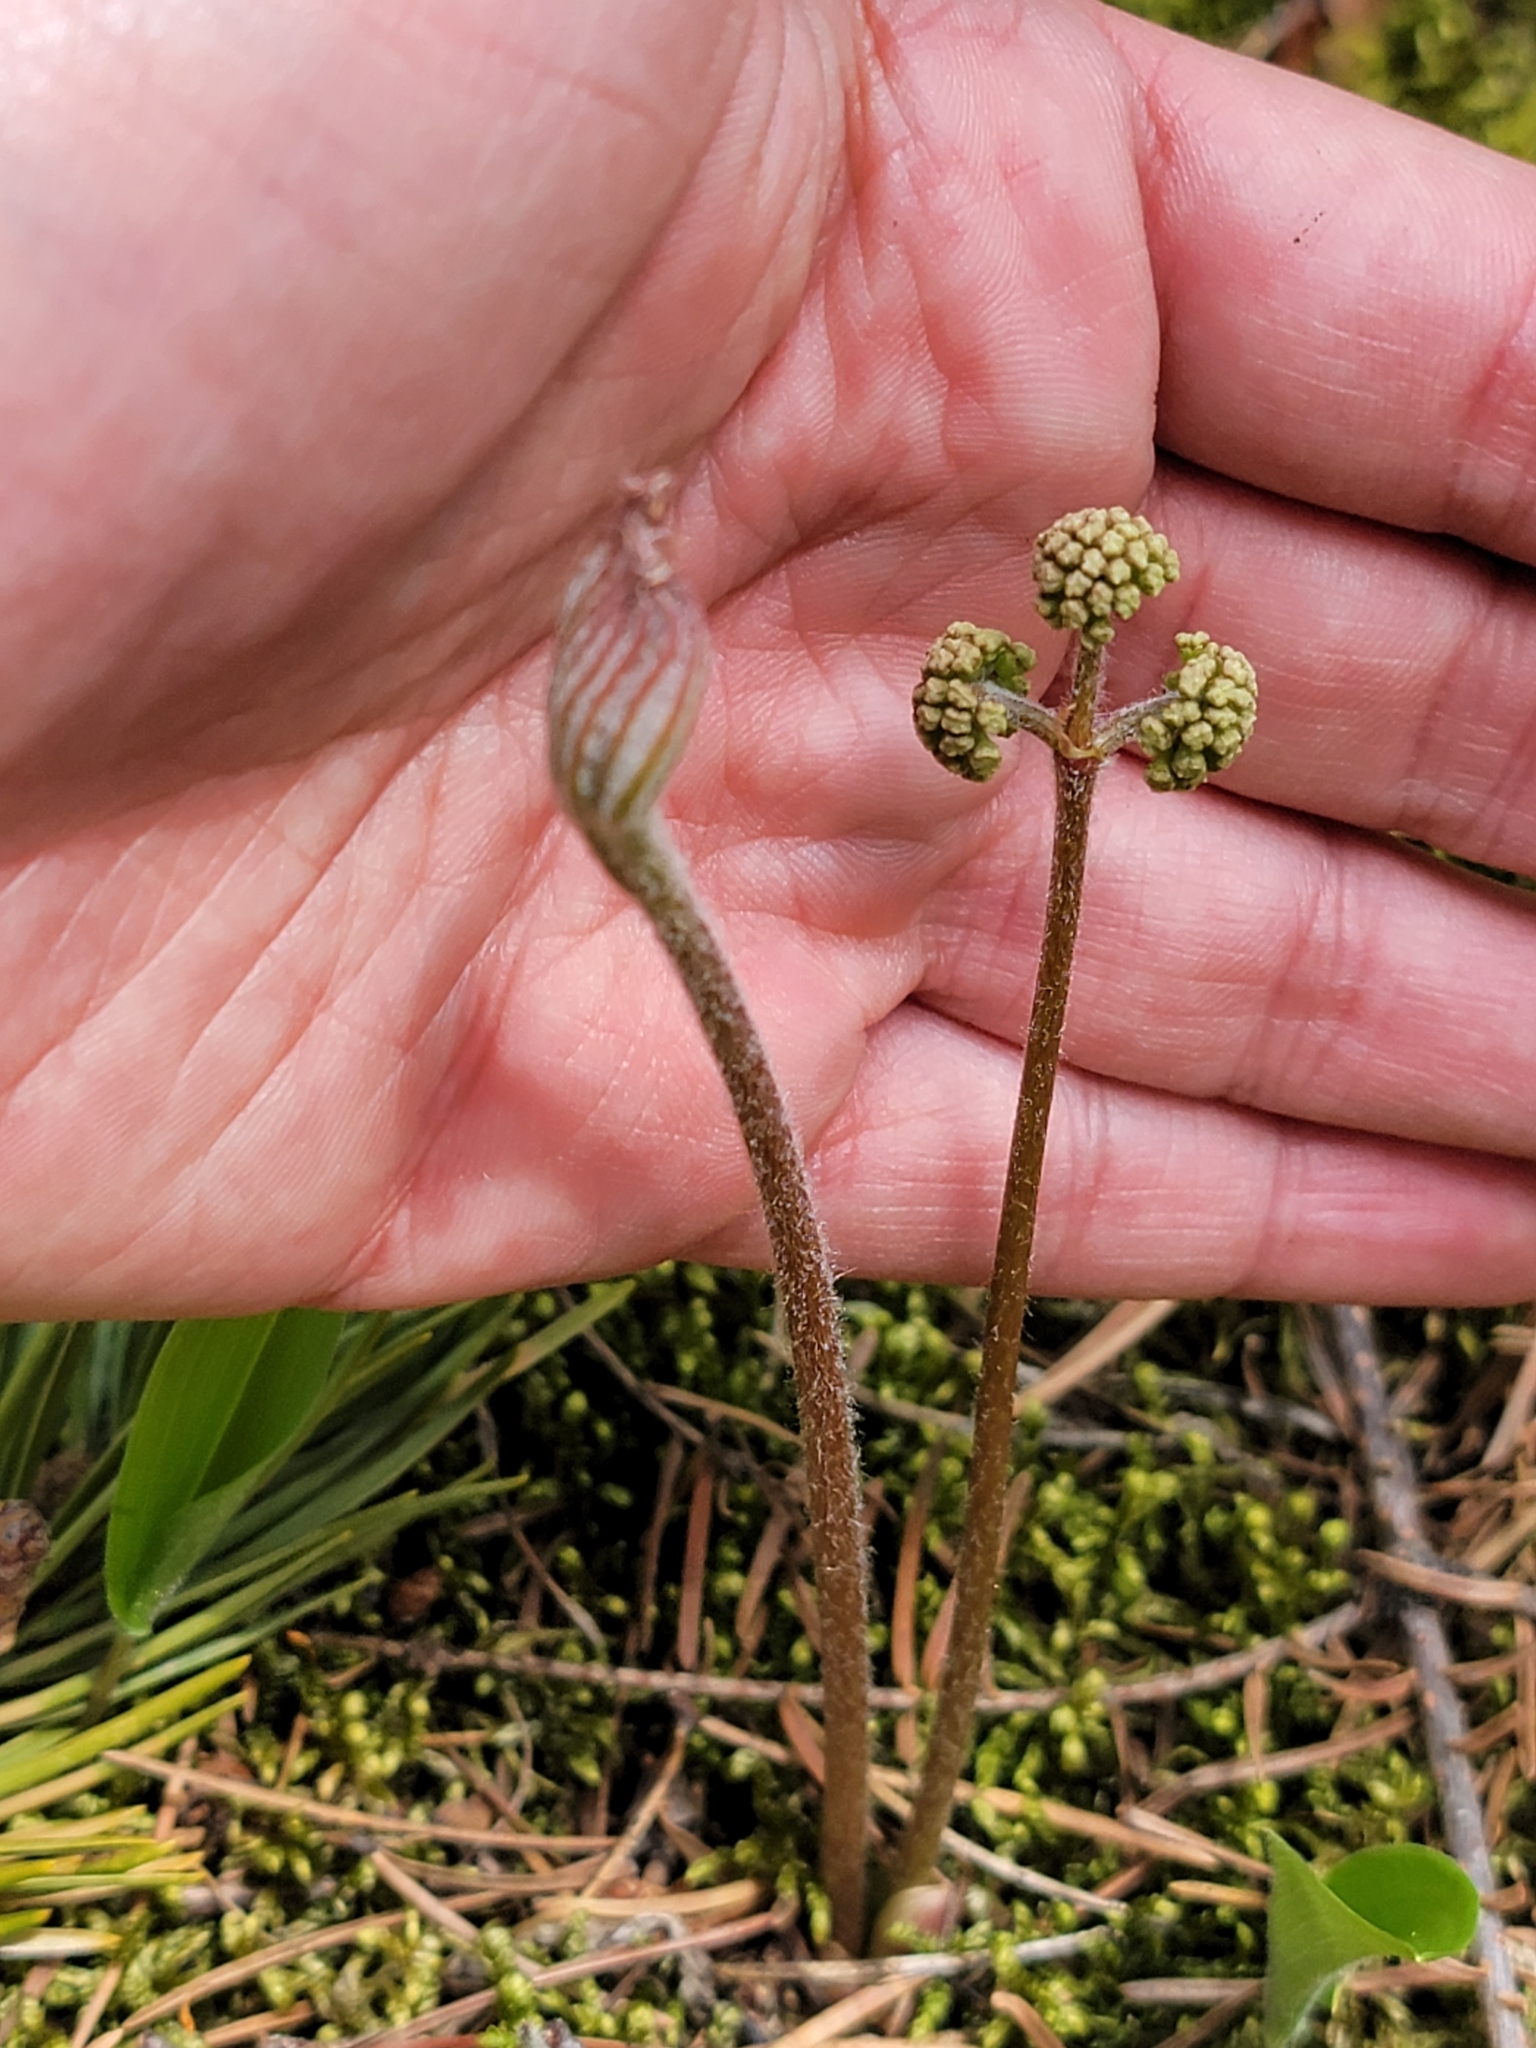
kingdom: Plantae
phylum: Tracheophyta
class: Magnoliopsida
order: Apiales
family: Araliaceae
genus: Aralia
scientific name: Aralia nudicaulis
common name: Wild sarsaparilla
